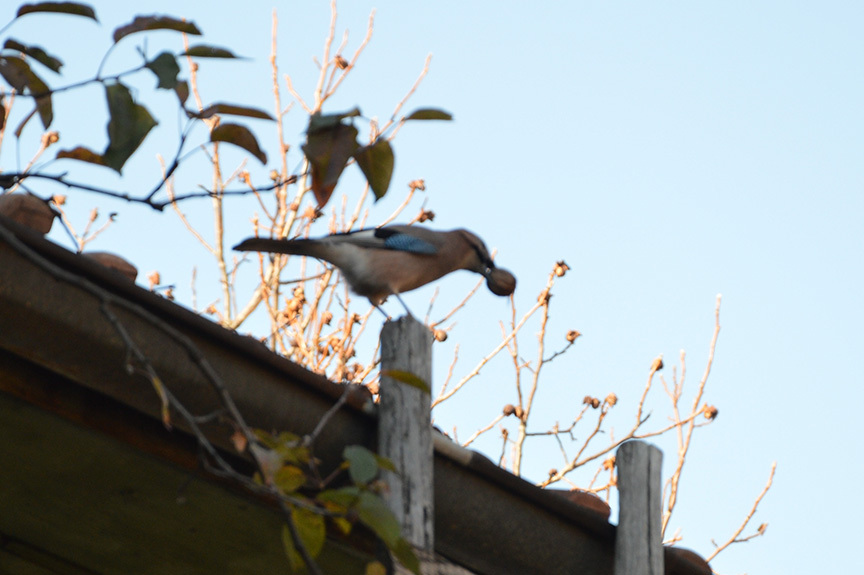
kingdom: Animalia
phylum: Chordata
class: Aves
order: Passeriformes
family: Corvidae
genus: Garrulus
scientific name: Garrulus glandarius
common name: Eurasian jay
